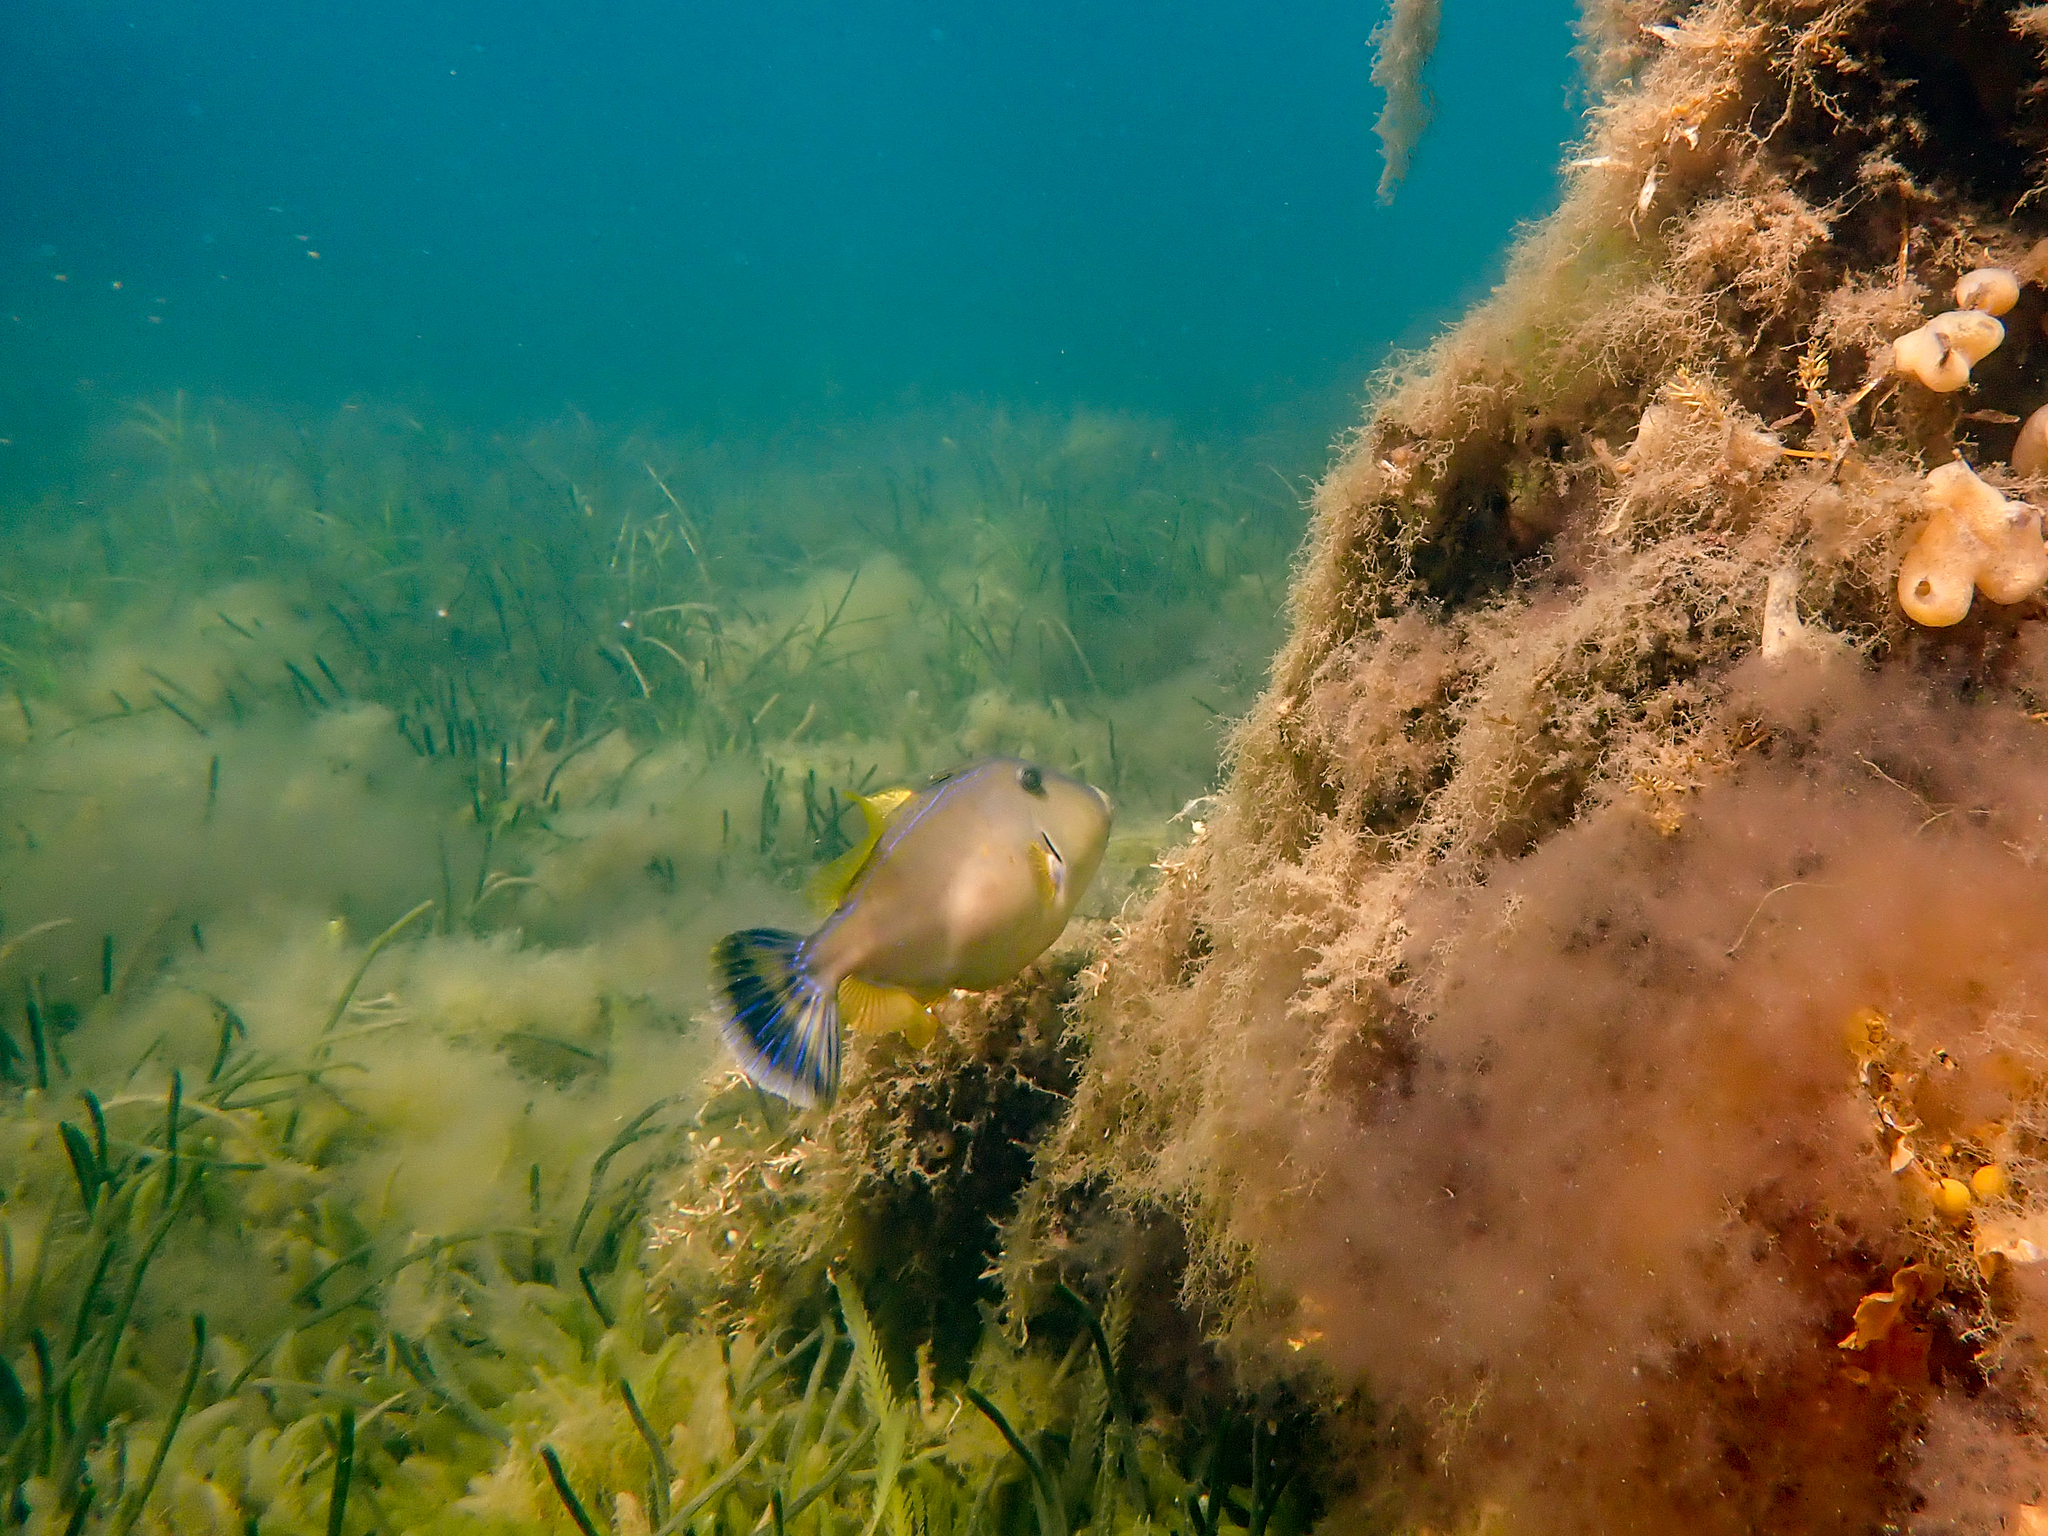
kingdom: Animalia
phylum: Chordata
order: Tetraodontiformes
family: Monacanthidae
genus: Meuschenia
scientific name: Meuschenia freycineti
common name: Freycinet's leatherjacket
